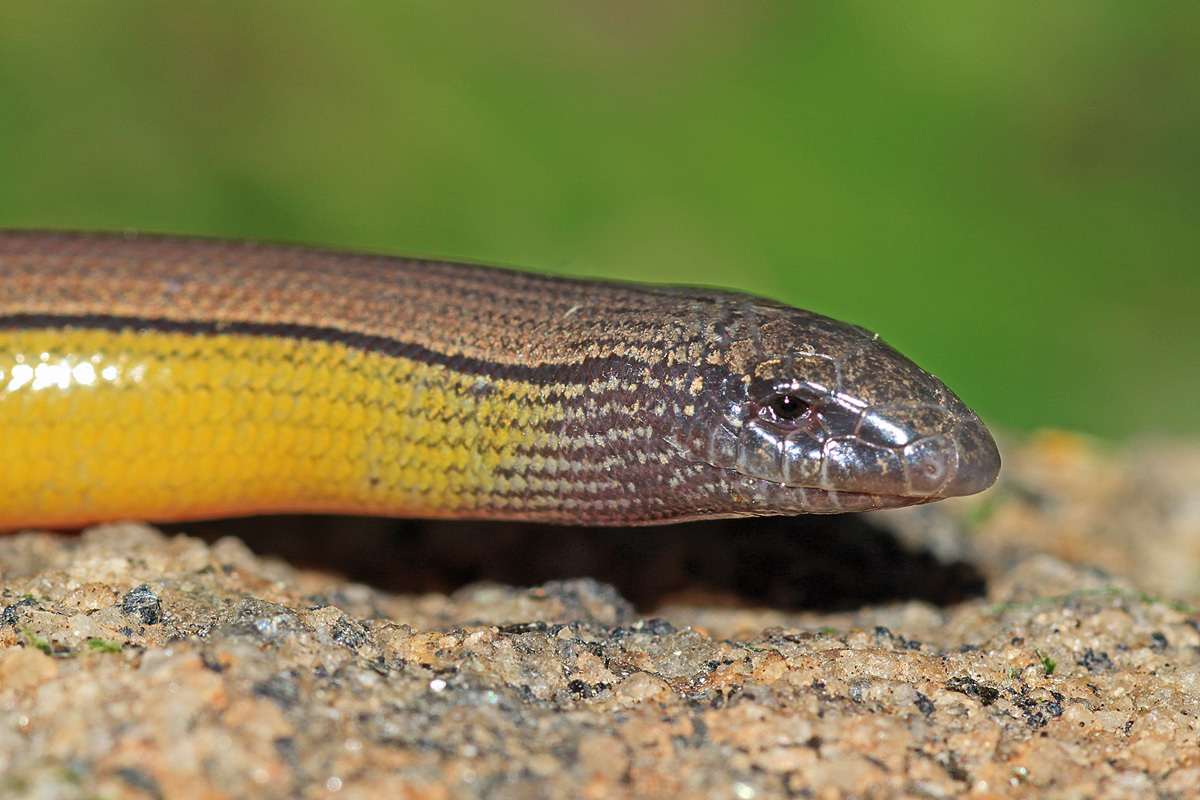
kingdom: Animalia
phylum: Chordata
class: Squamata
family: Anguidae
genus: Anniella
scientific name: Anniella stebbinsi
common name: Southern california legless lizard
